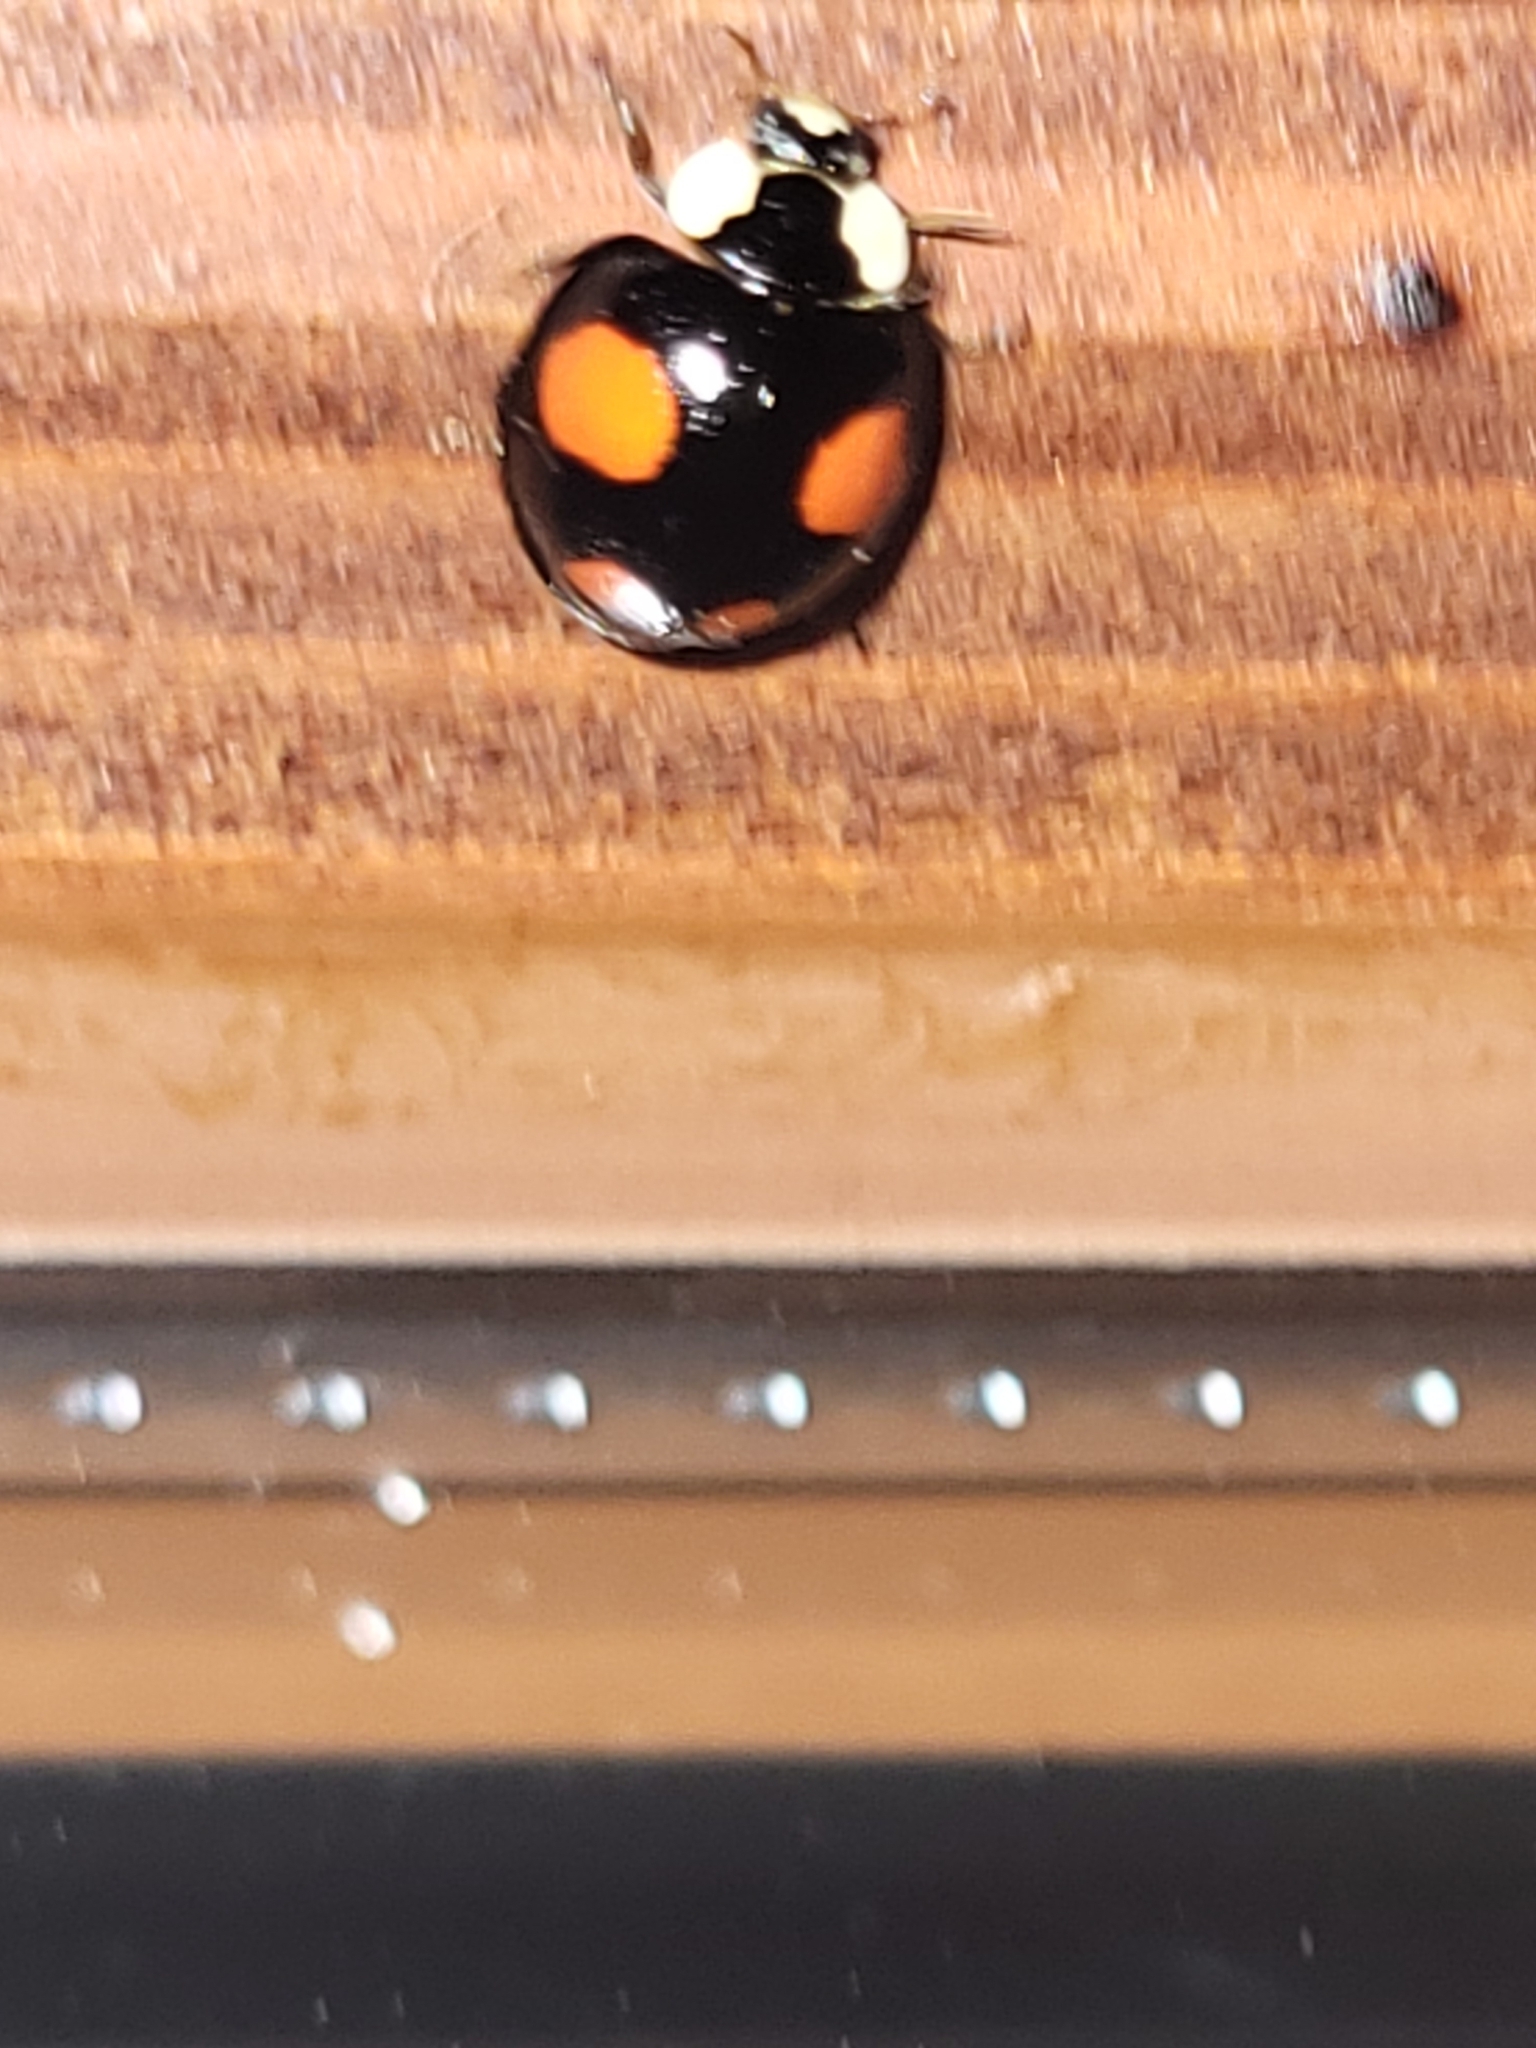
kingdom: Animalia
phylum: Arthropoda
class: Insecta
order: Coleoptera
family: Coccinellidae
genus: Harmonia
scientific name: Harmonia axyridis
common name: Harlequin ladybird
